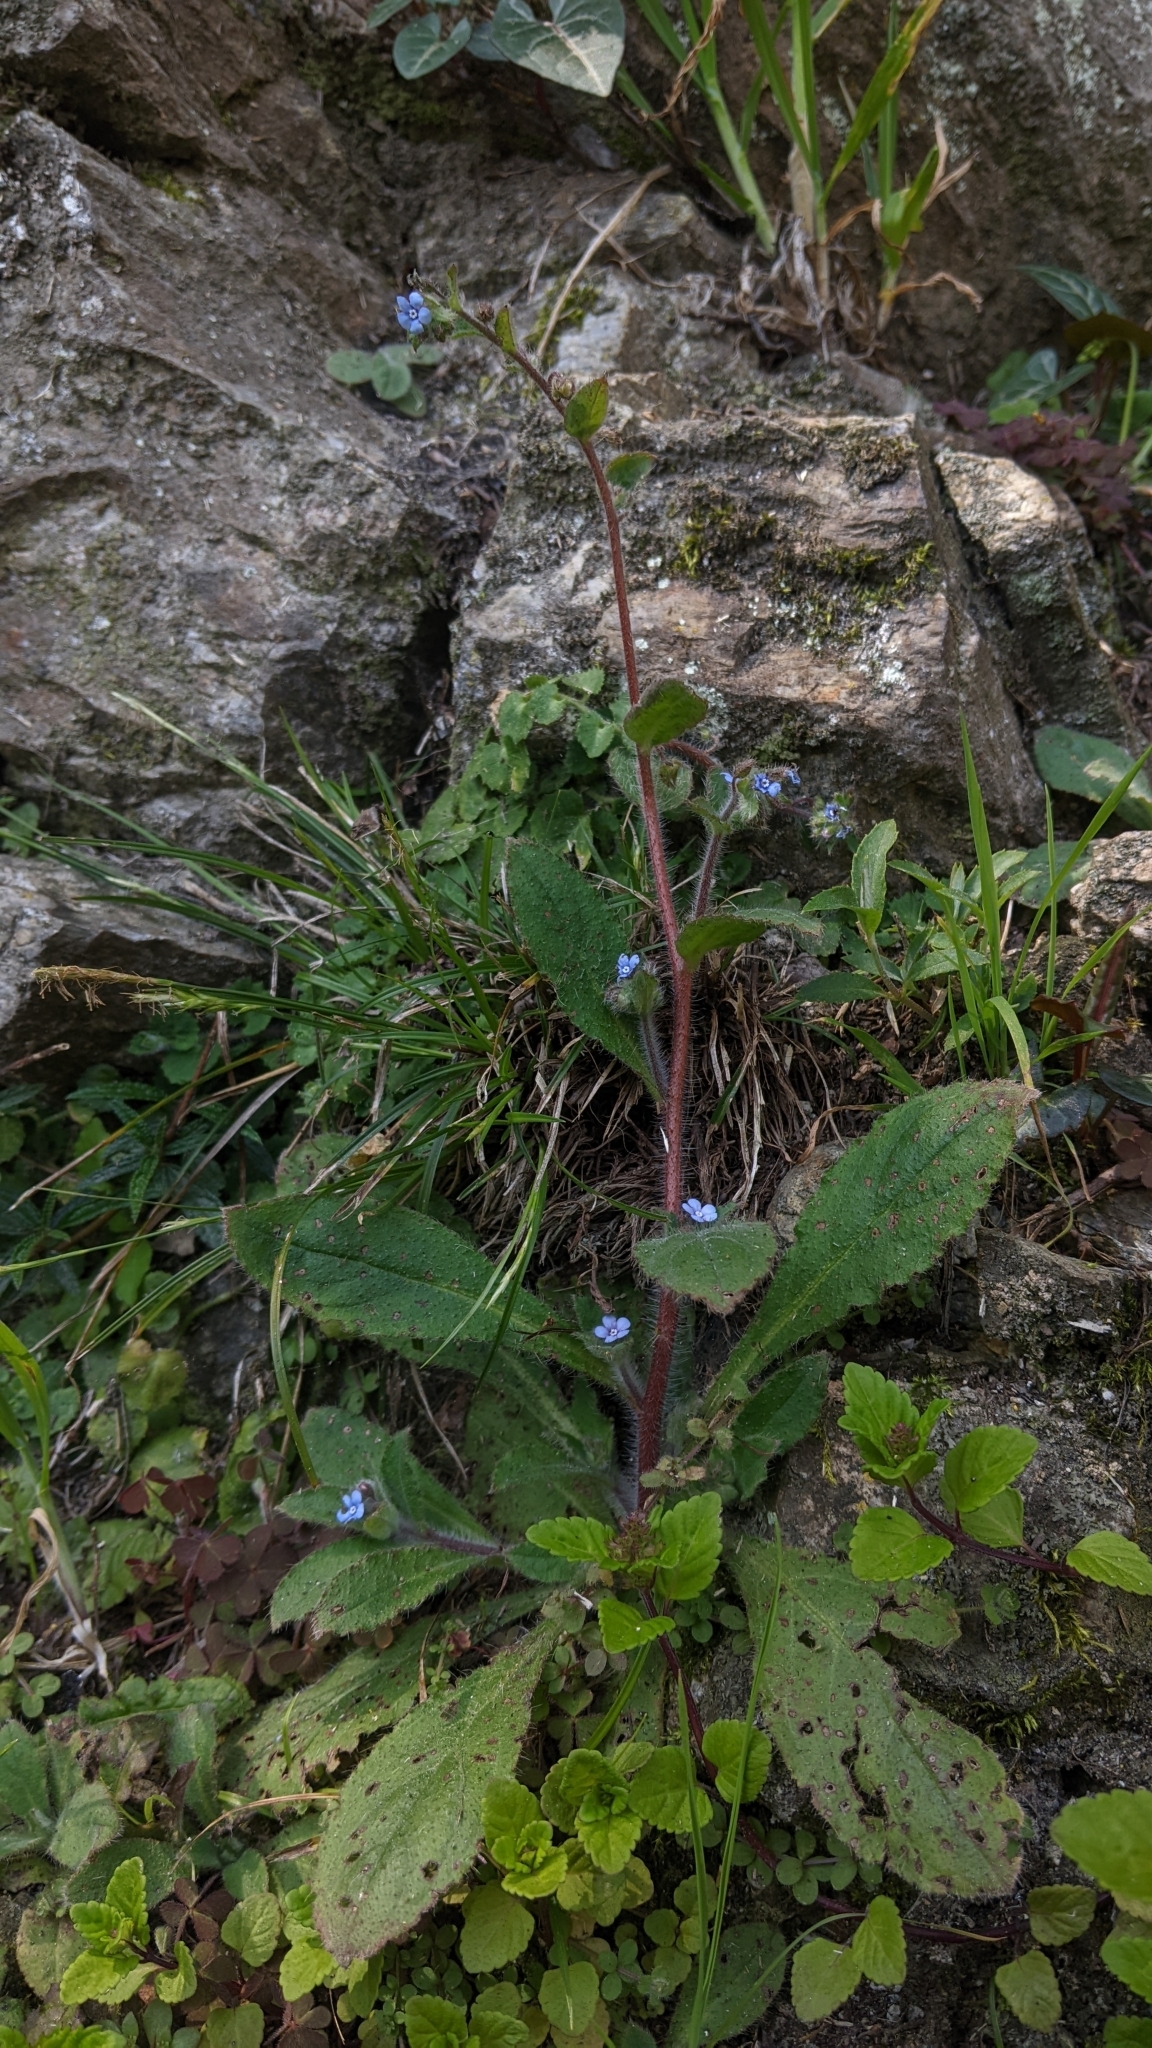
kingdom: Plantae
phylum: Tracheophyta
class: Magnoliopsida
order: Boraginales
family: Boraginaceae
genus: Thyrocarpus
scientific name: Thyrocarpus sampsonii
